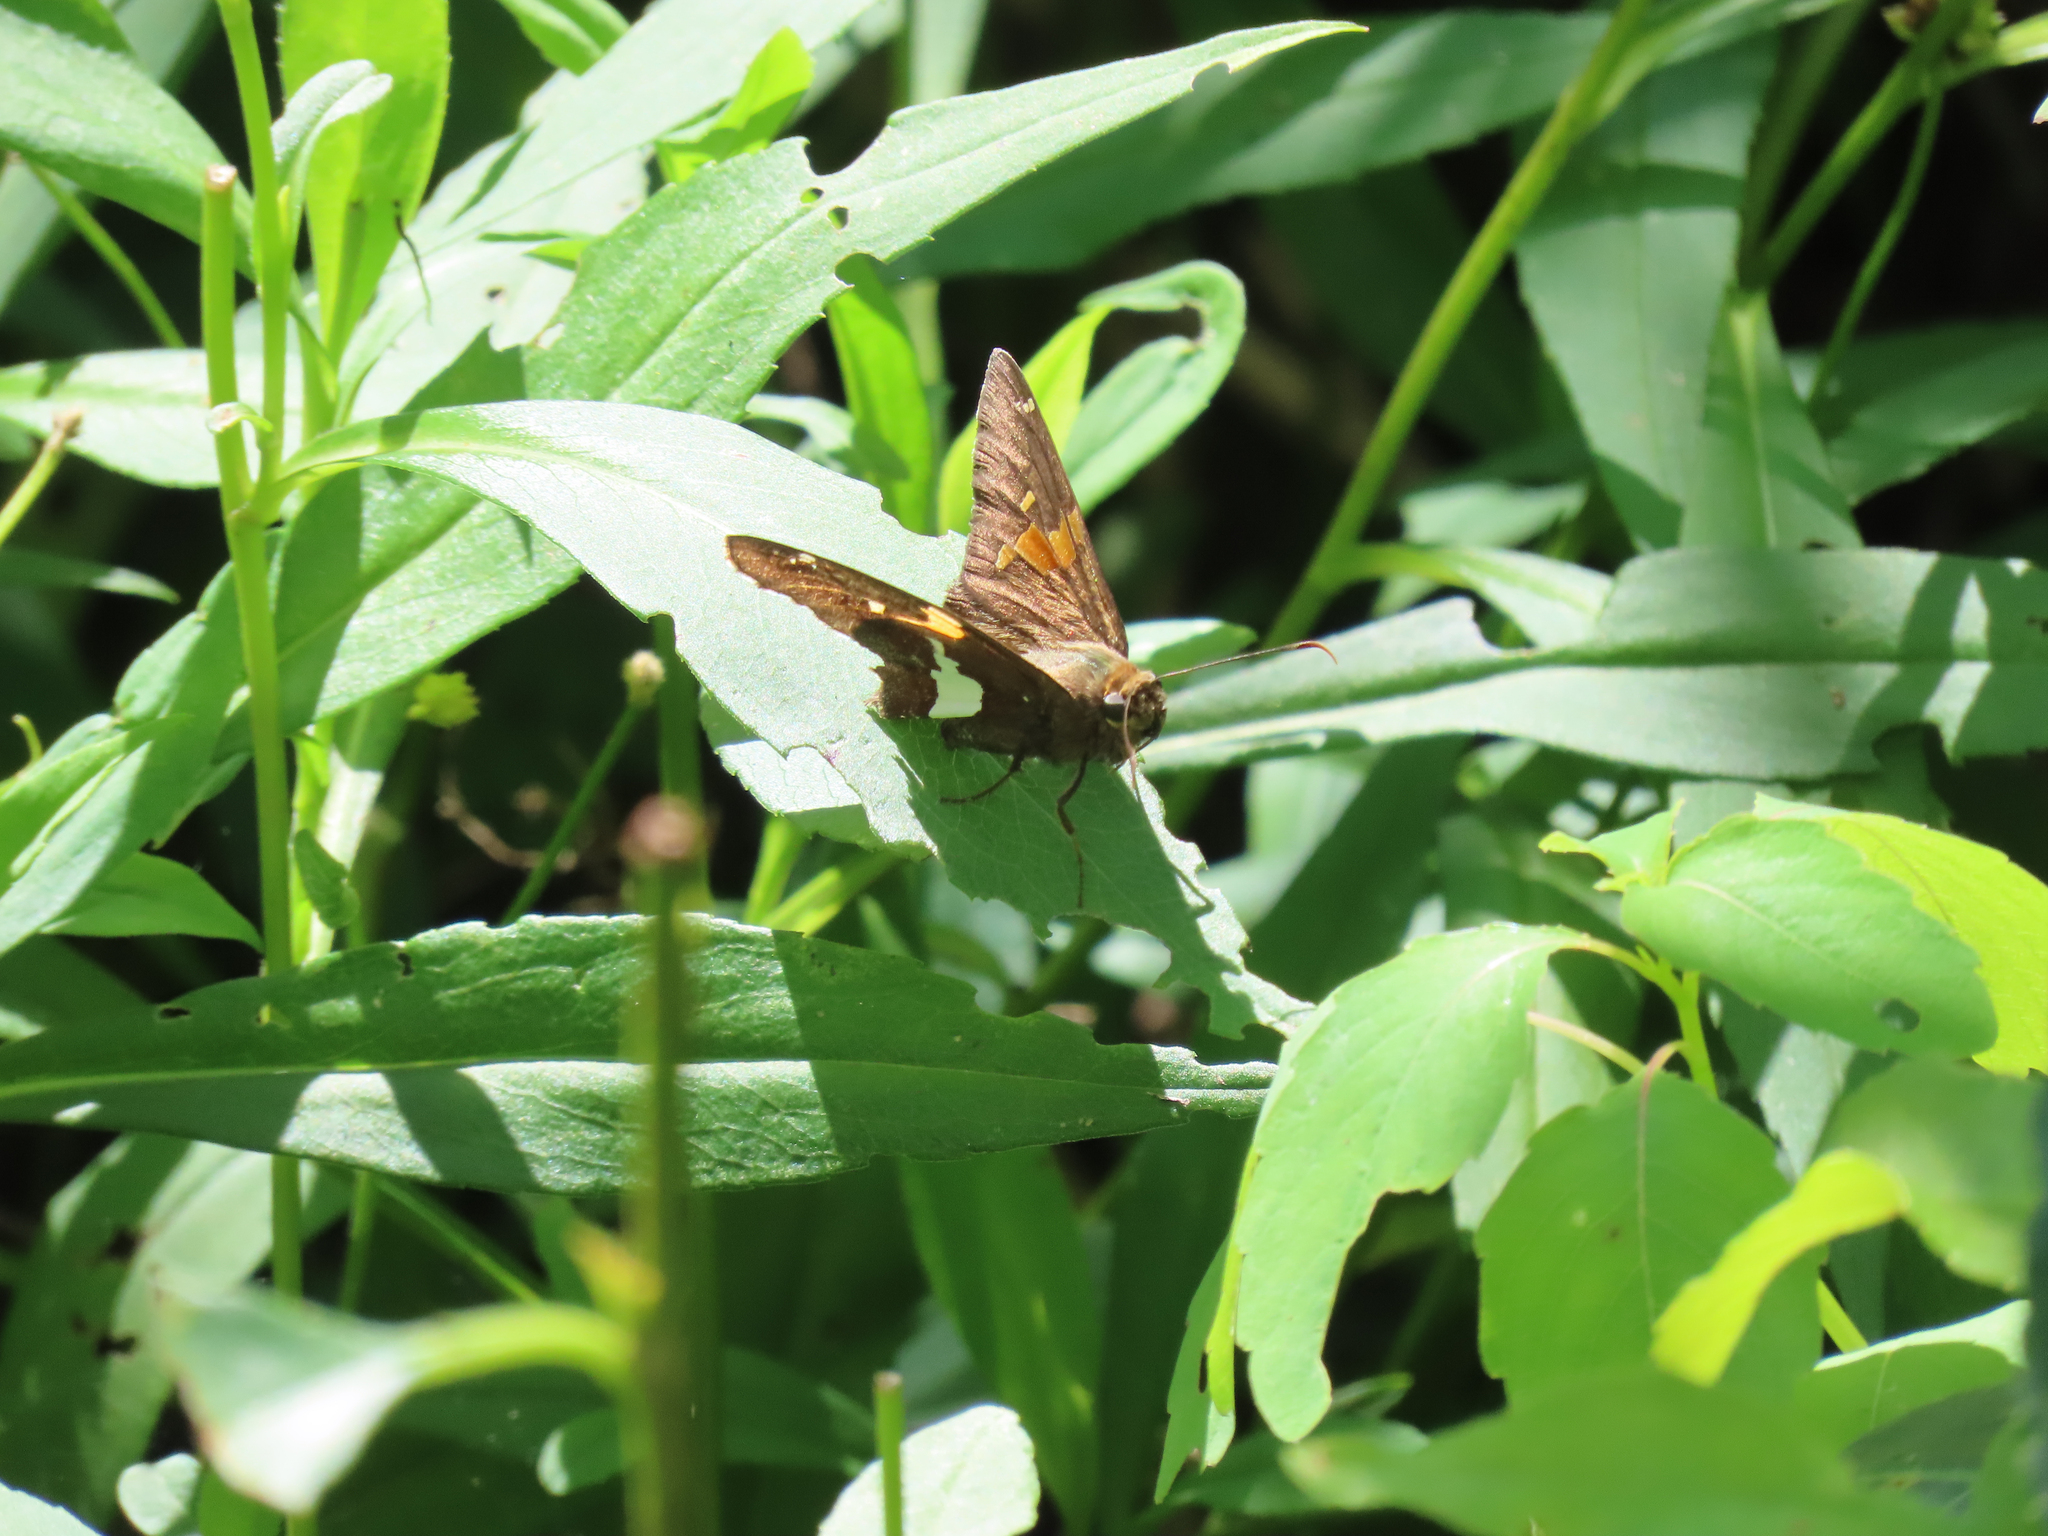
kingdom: Animalia
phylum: Arthropoda
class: Insecta
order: Lepidoptera
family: Hesperiidae
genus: Epargyreus
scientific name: Epargyreus clarus
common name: Silver-spotted skipper
